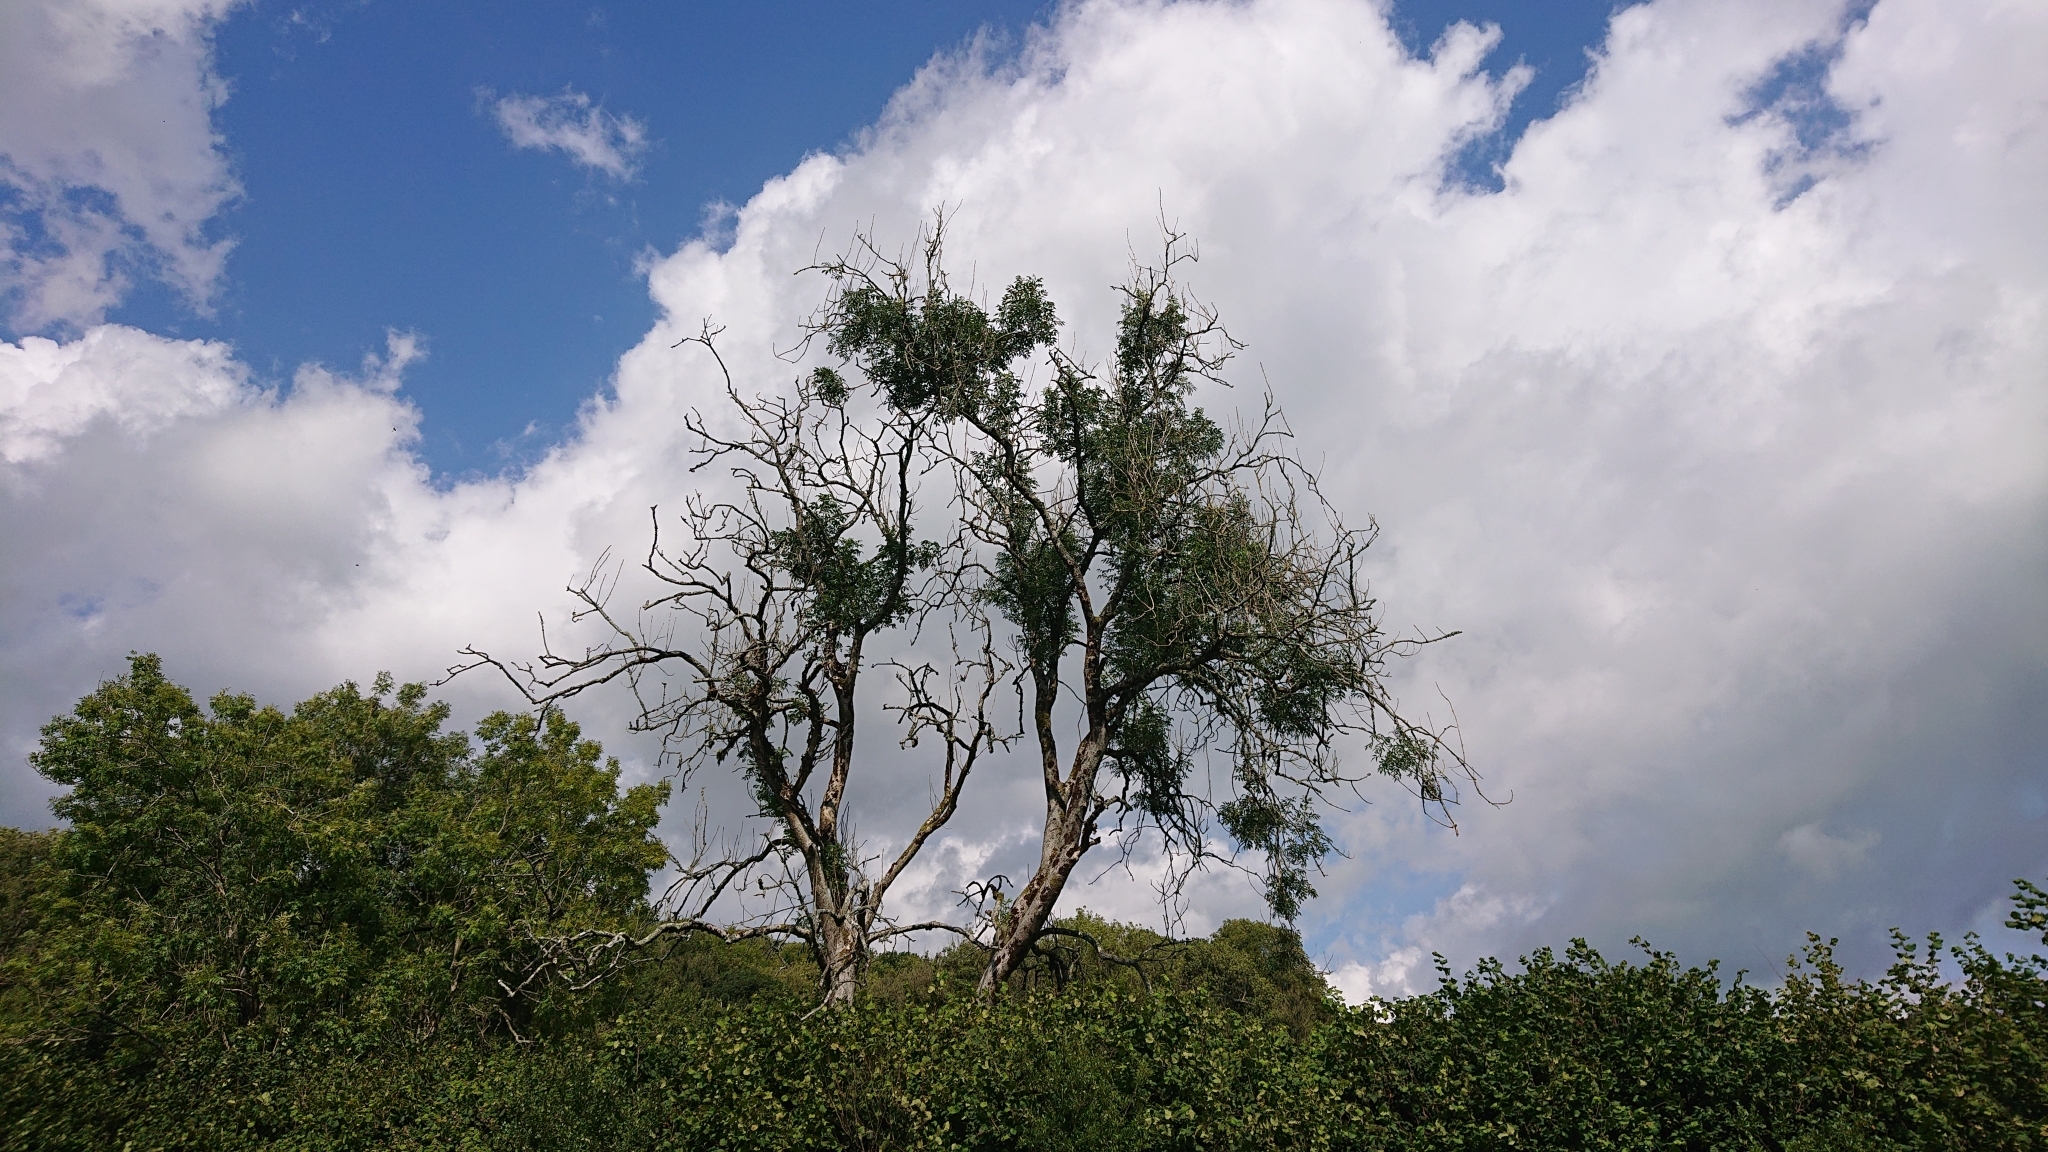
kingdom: Plantae
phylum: Tracheophyta
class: Magnoliopsida
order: Lamiales
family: Oleaceae
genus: Fraxinus
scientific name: Fraxinus excelsior
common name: European ash
